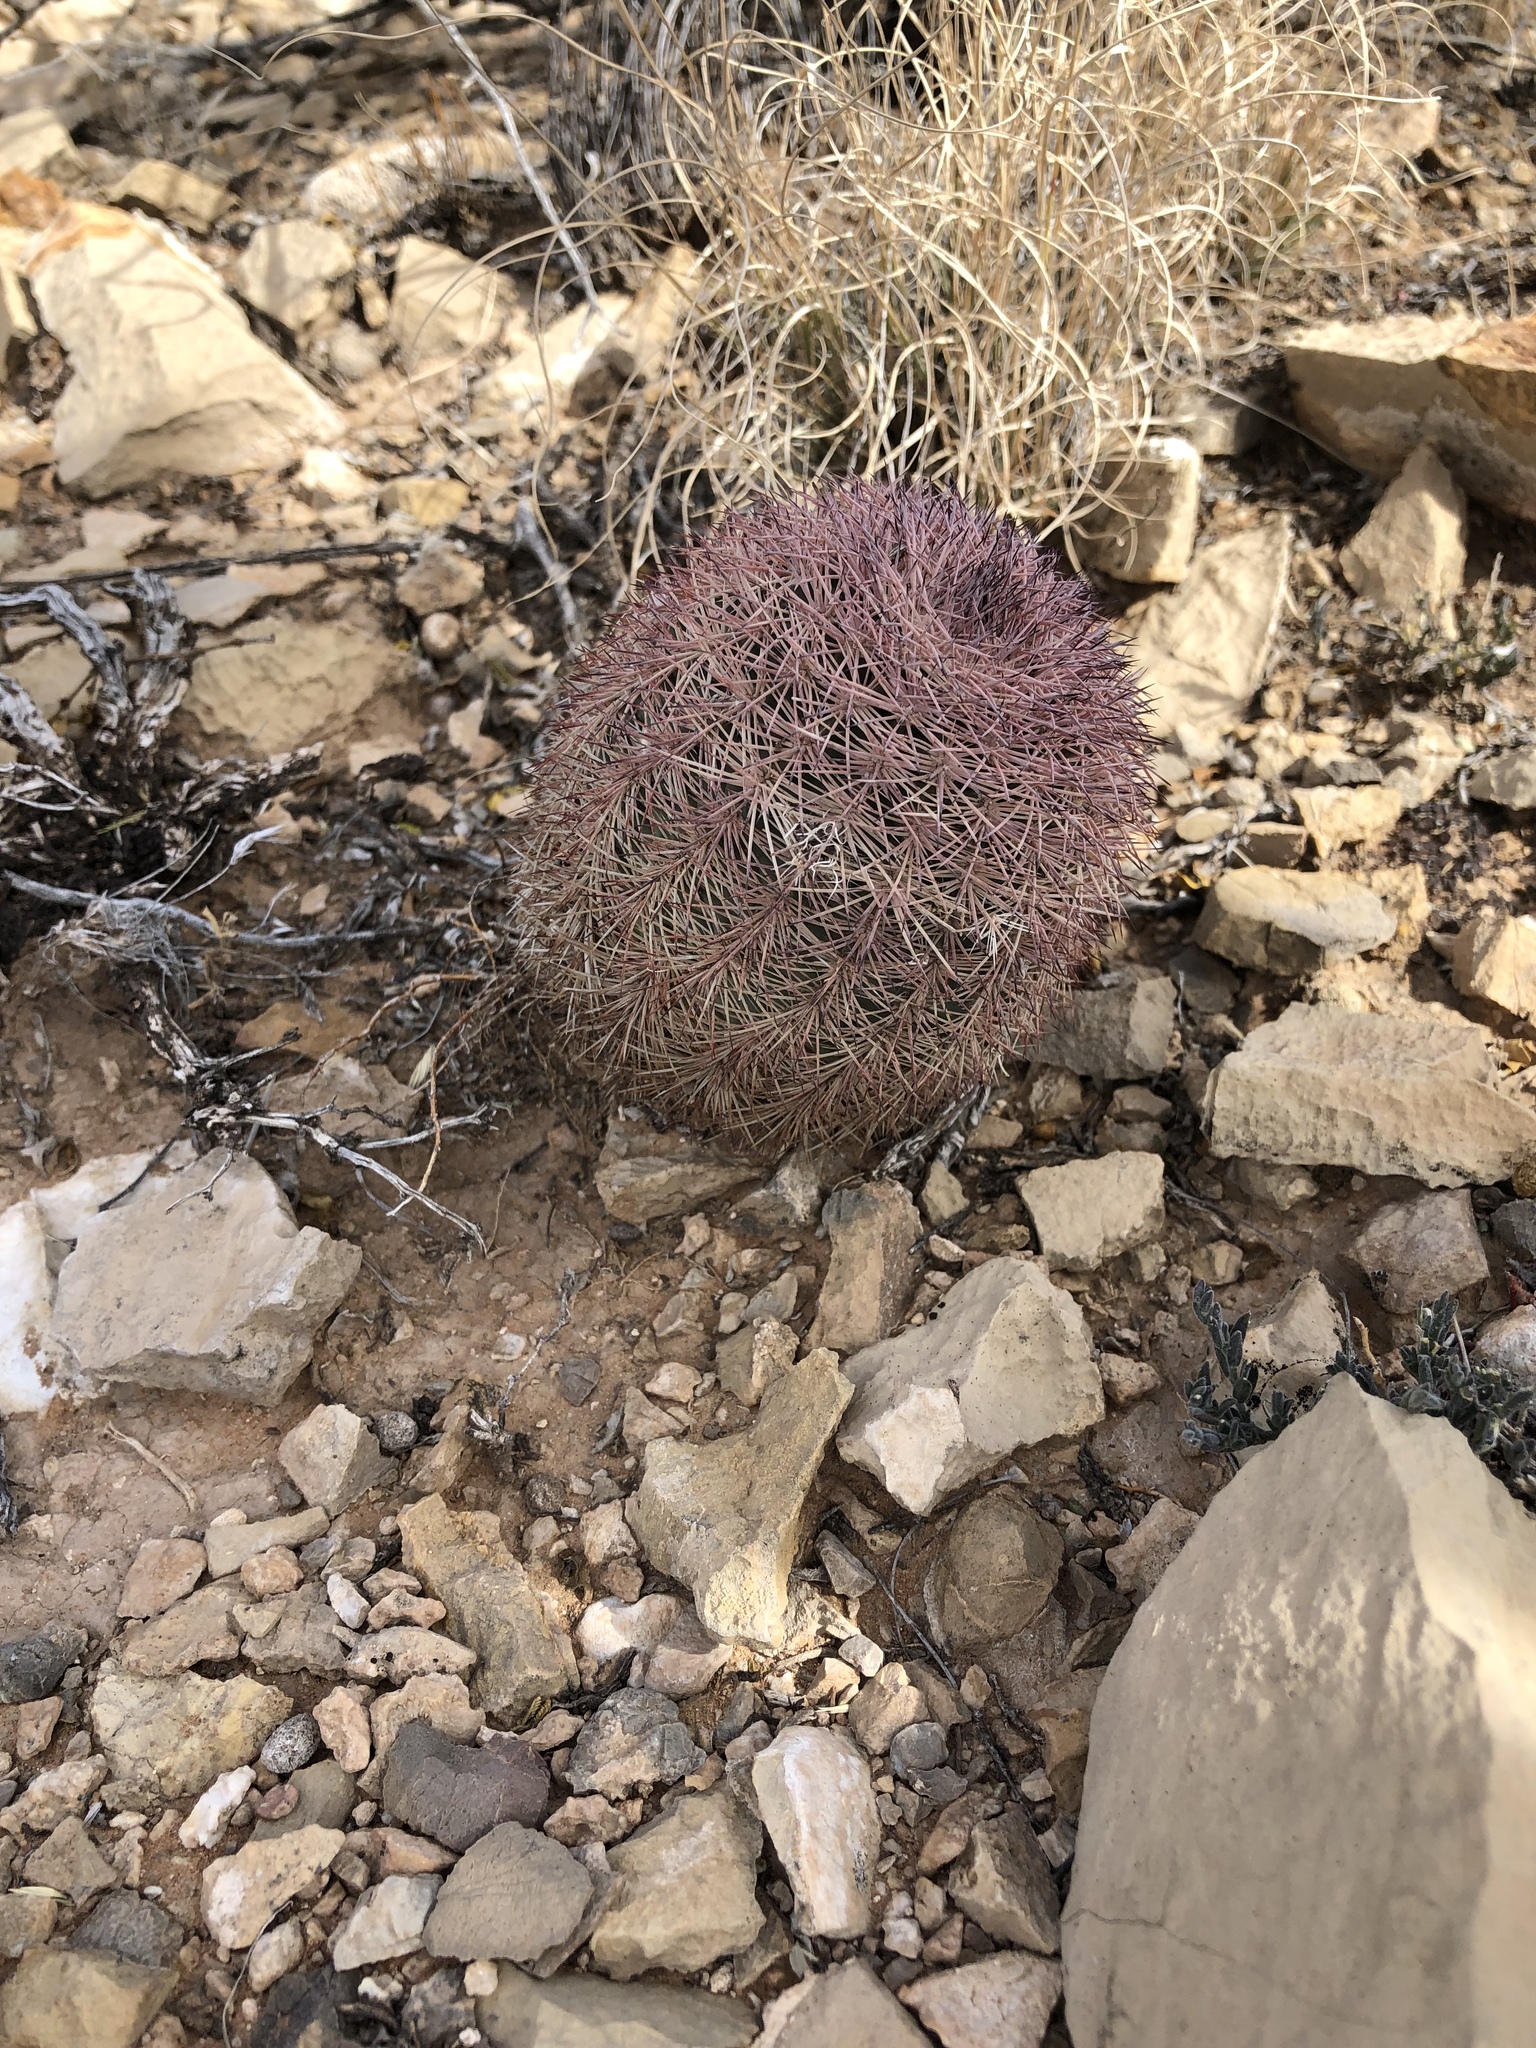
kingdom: Plantae
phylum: Tracheophyta
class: Magnoliopsida
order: Caryophyllales
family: Cactaceae
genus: Echinocereus
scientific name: Echinocereus dasyacanthus
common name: Spiny hedgehog cactus
